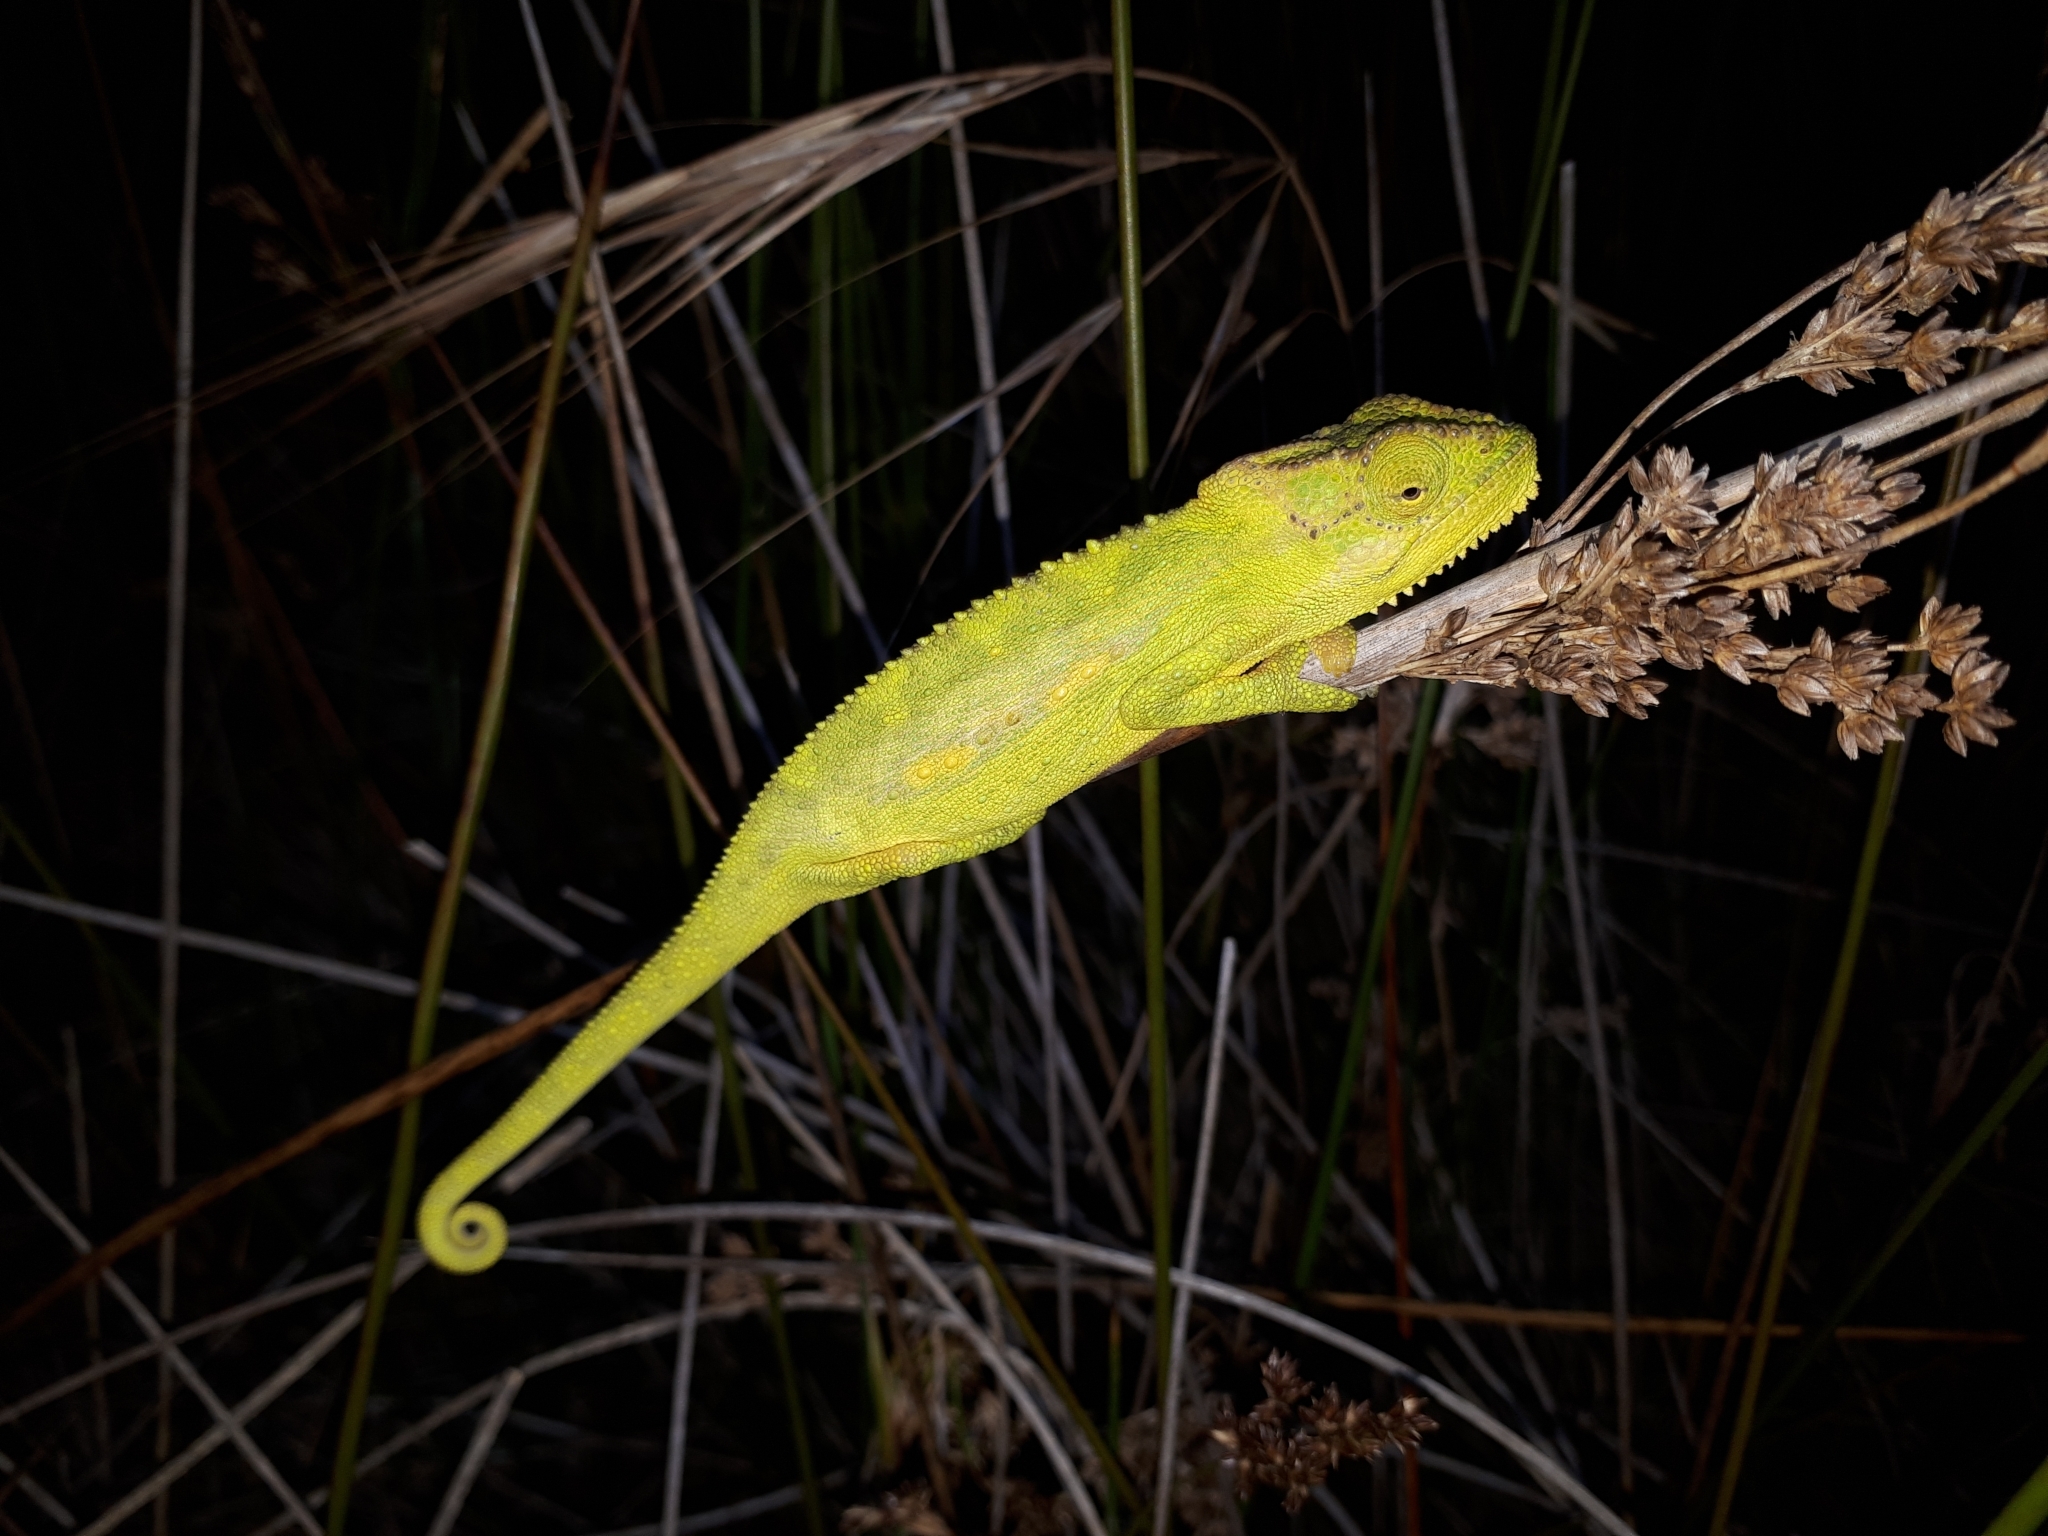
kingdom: Animalia
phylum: Chordata
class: Squamata
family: Chamaeleonidae
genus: Bradypodion
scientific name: Bradypodion pumilum
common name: Cape dwarf chameleon
